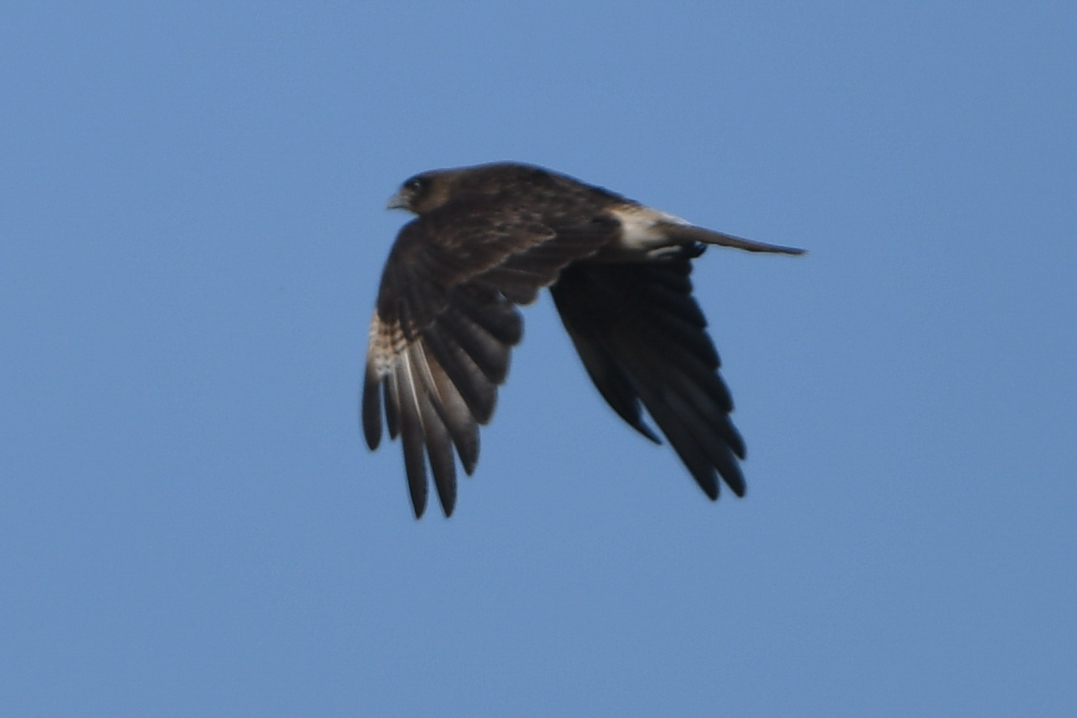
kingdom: Animalia
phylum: Chordata
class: Aves
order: Falconiformes
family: Falconidae
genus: Daptrius
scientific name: Daptrius
